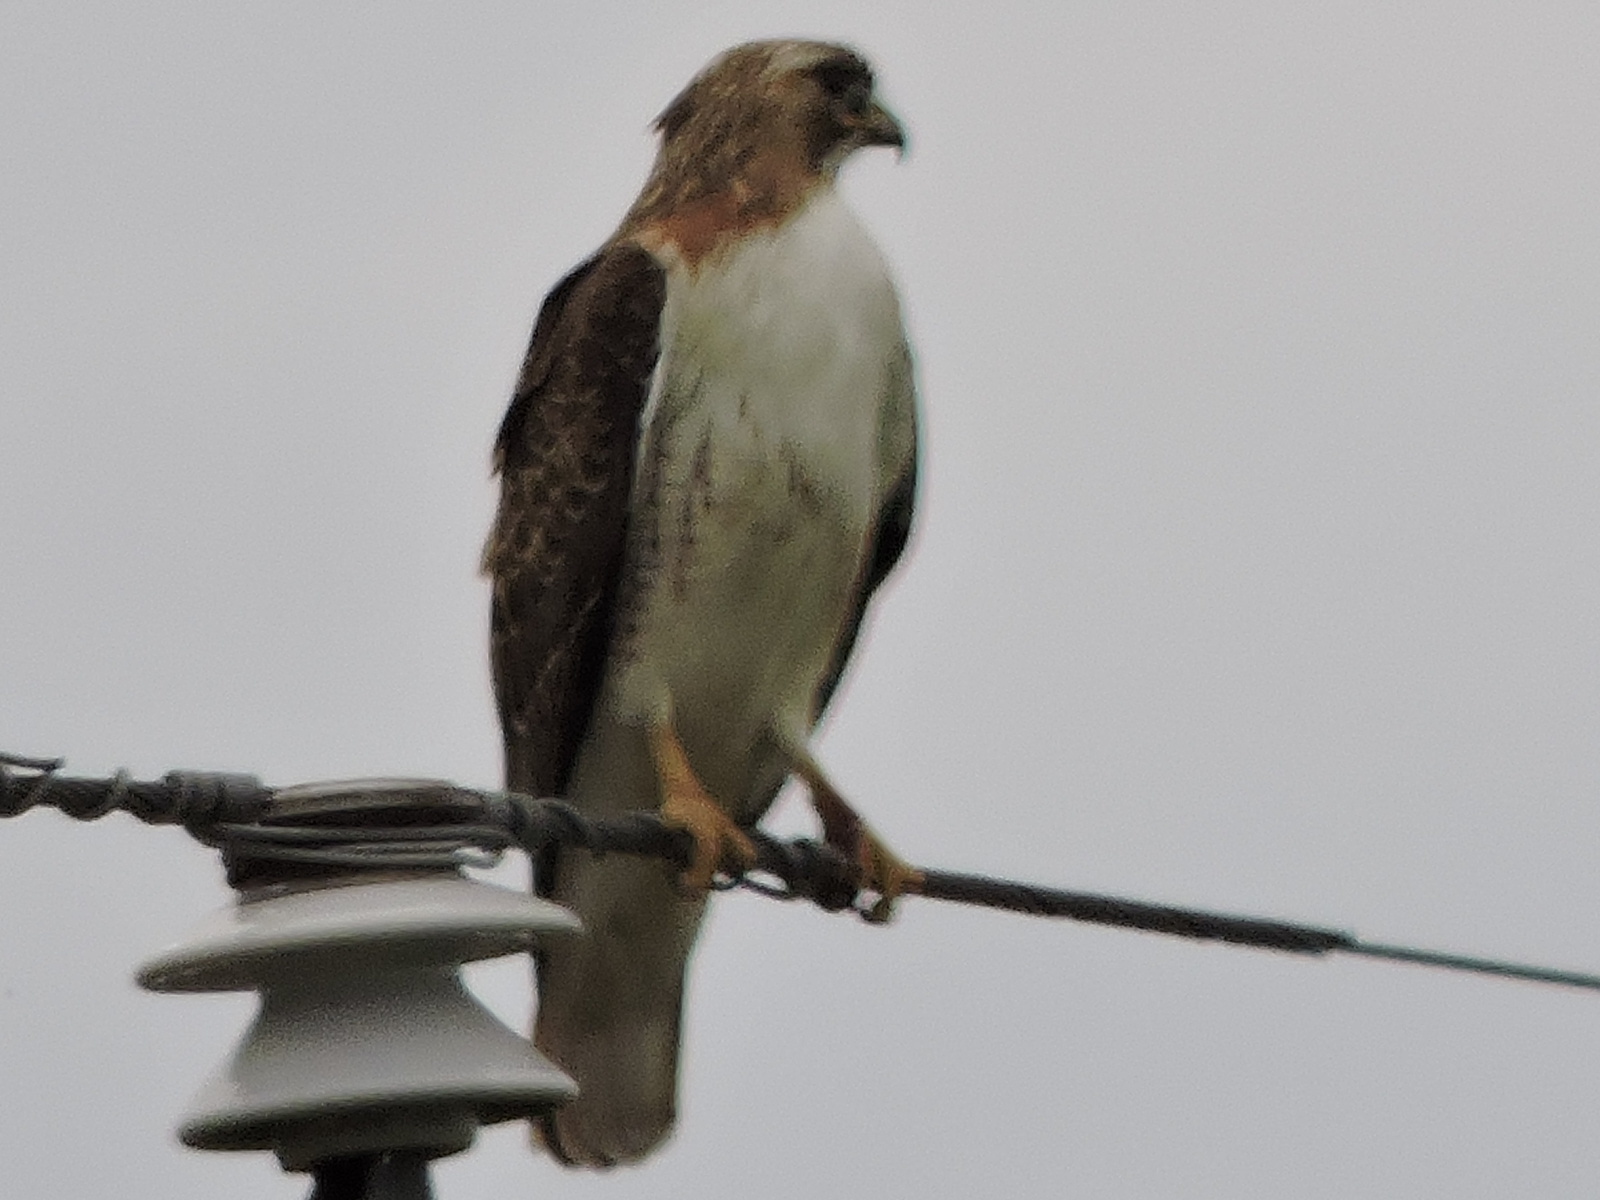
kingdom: Animalia
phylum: Chordata
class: Aves
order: Accipitriformes
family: Accipitridae
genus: Buteo
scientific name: Buteo jamaicensis
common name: Red-tailed hawk
